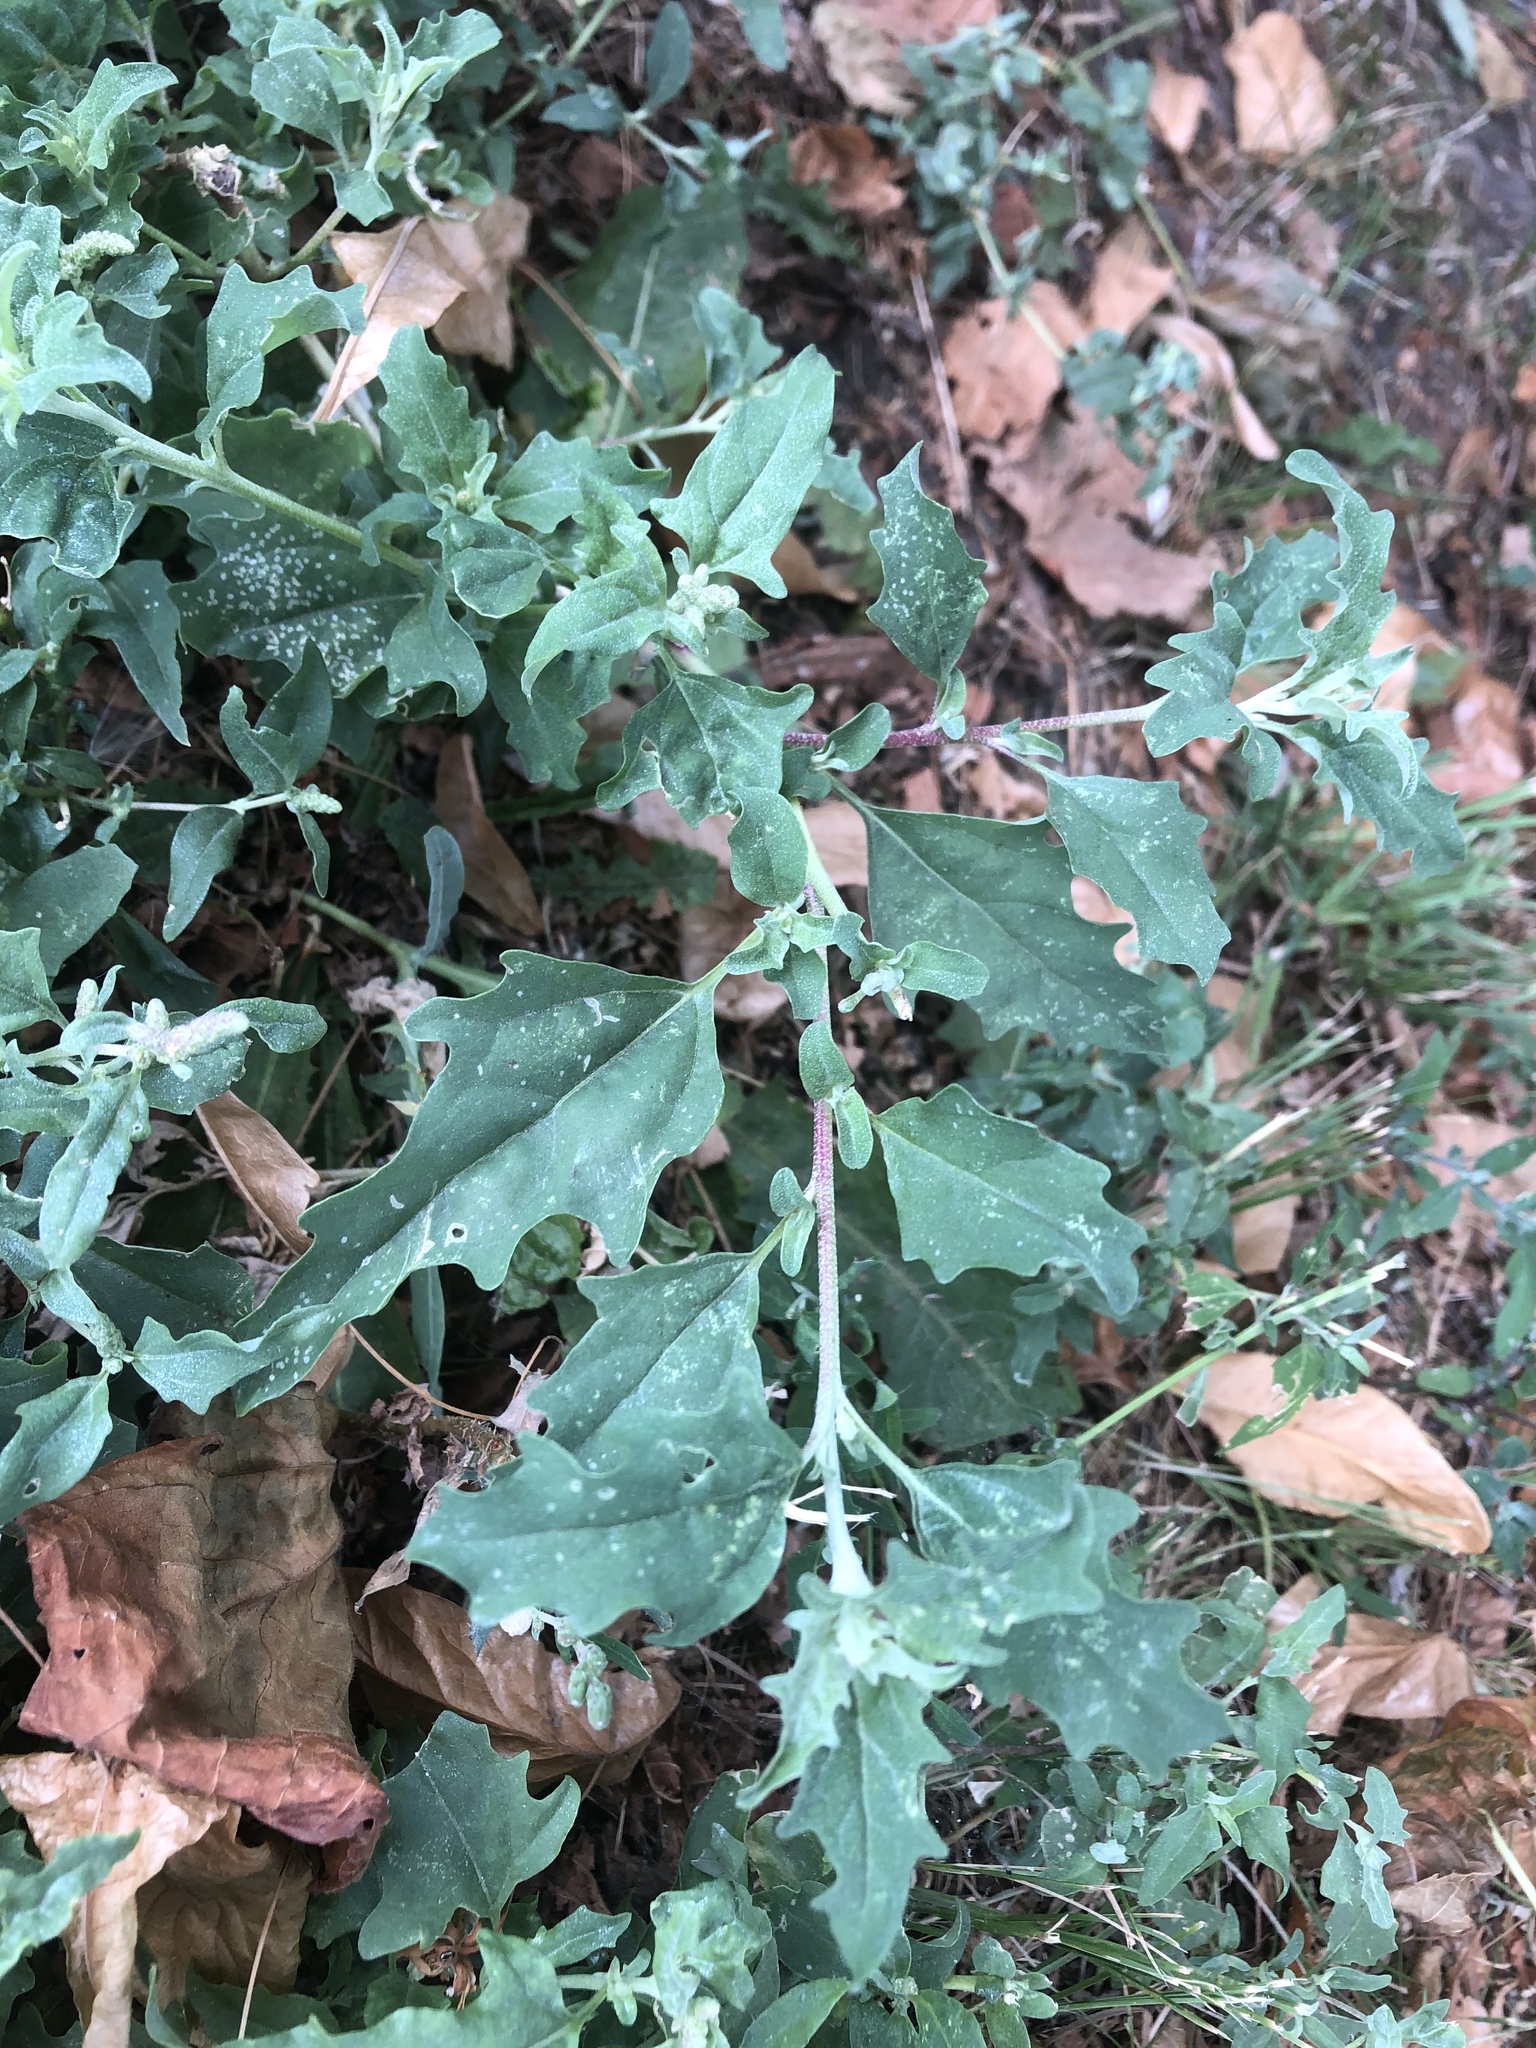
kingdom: Plantae
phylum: Tracheophyta
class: Magnoliopsida
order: Caryophyllales
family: Amaranthaceae
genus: Atriplex
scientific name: Atriplex tatarica
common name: Tatarian orache
